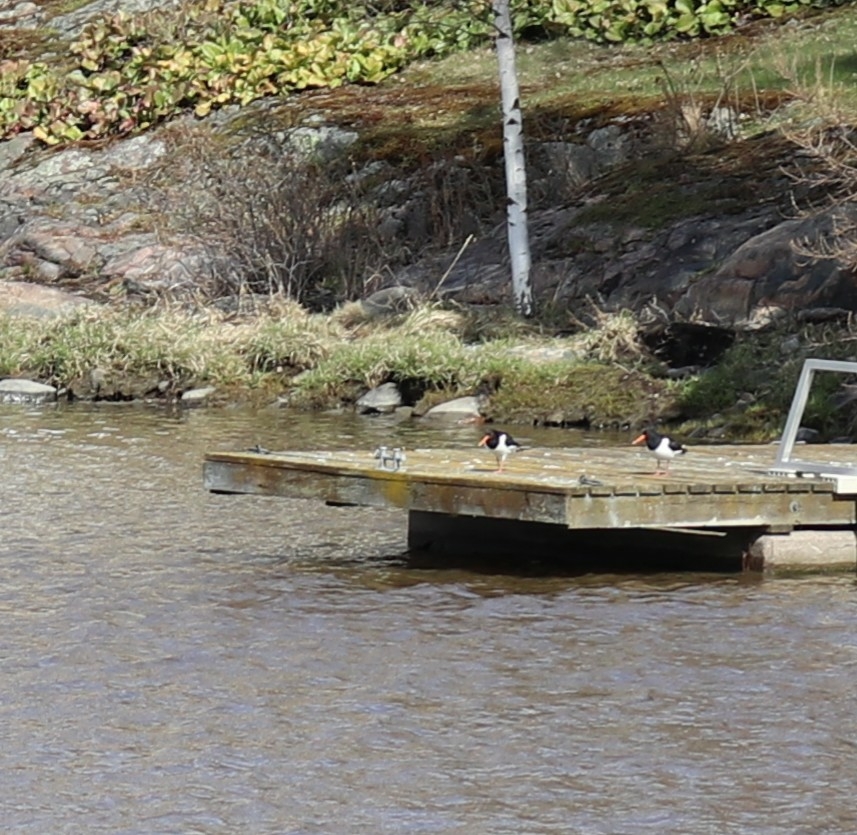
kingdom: Animalia
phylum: Chordata
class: Aves
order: Charadriiformes
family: Haematopodidae
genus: Haematopus
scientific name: Haematopus ostralegus
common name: Eurasian oystercatcher
